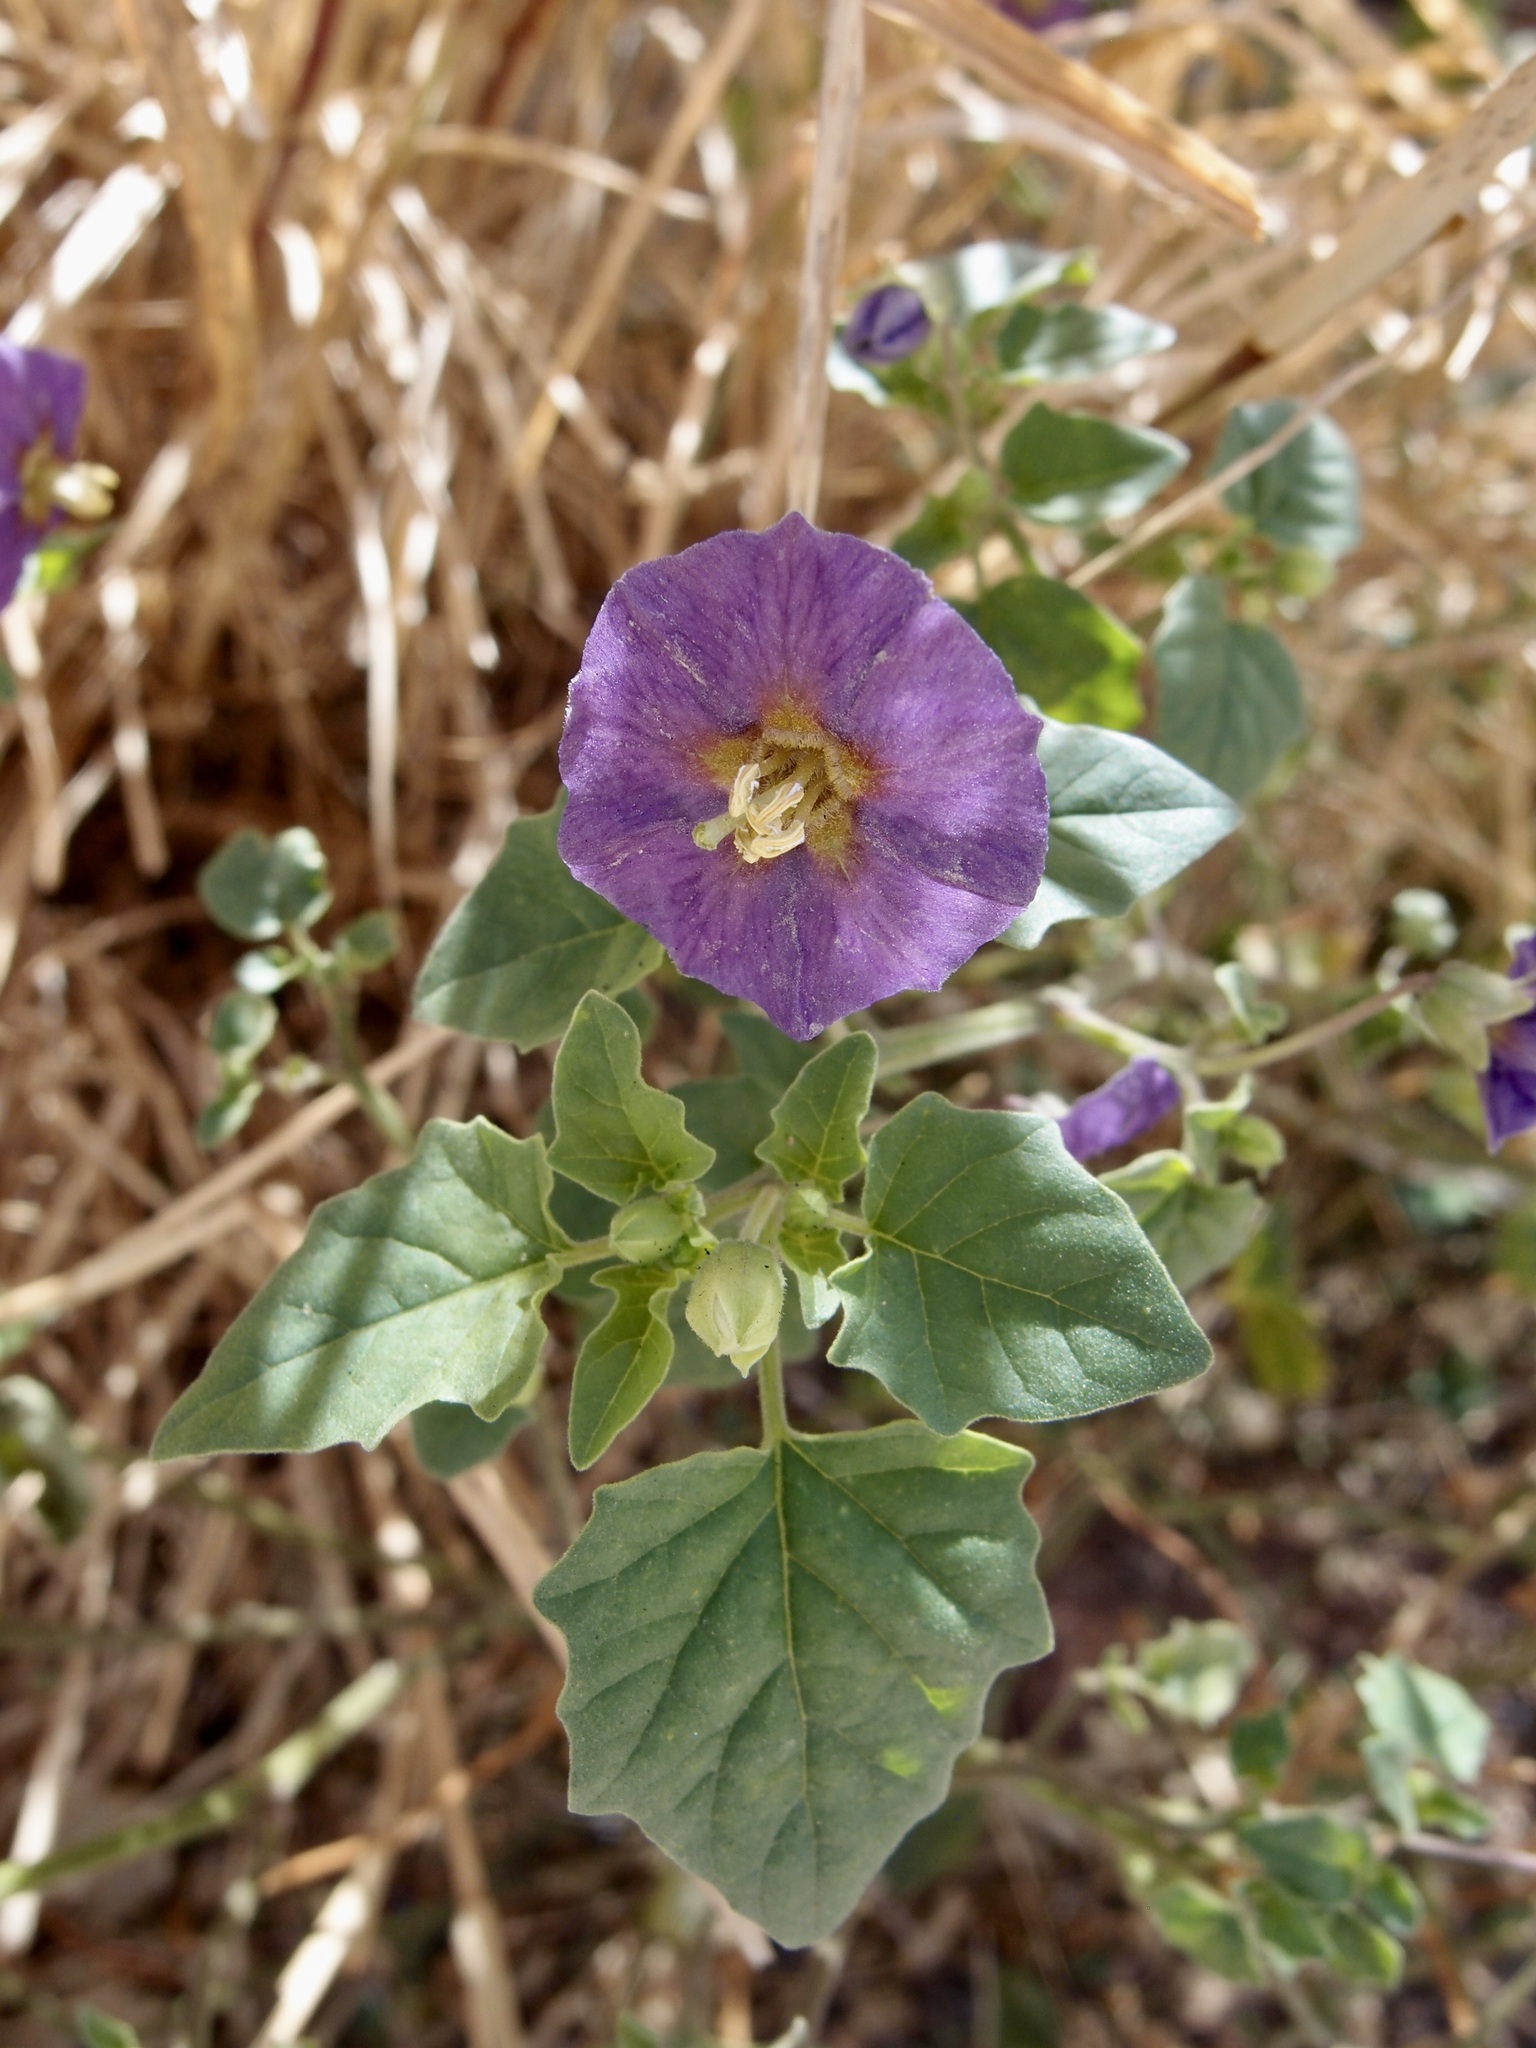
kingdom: Plantae
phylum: Tracheophyta
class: Magnoliopsida
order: Solanales
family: Solanaceae
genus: Physalis
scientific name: Physalis purpurea
